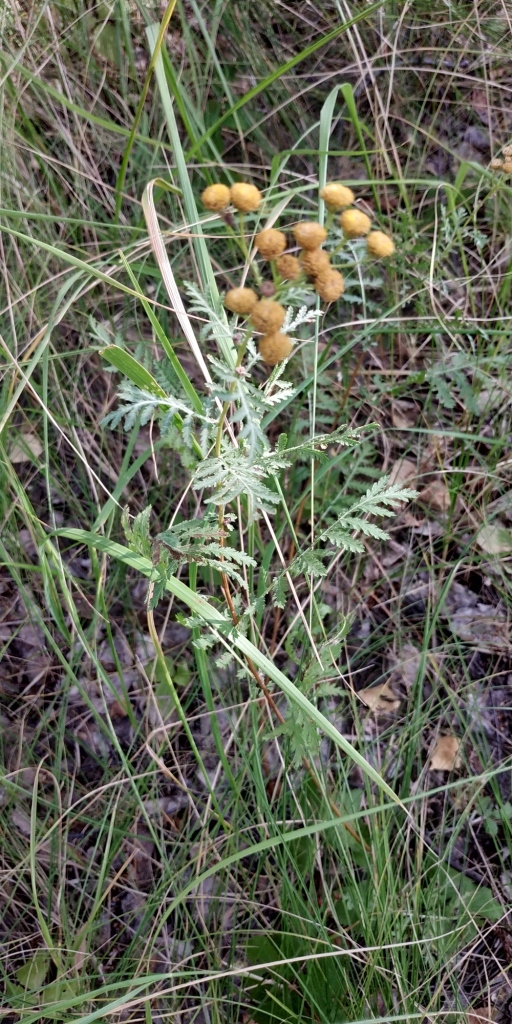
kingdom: Plantae
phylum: Tracheophyta
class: Magnoliopsida
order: Asterales
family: Asteraceae
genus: Tanacetum
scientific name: Tanacetum vulgare
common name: Common tansy
